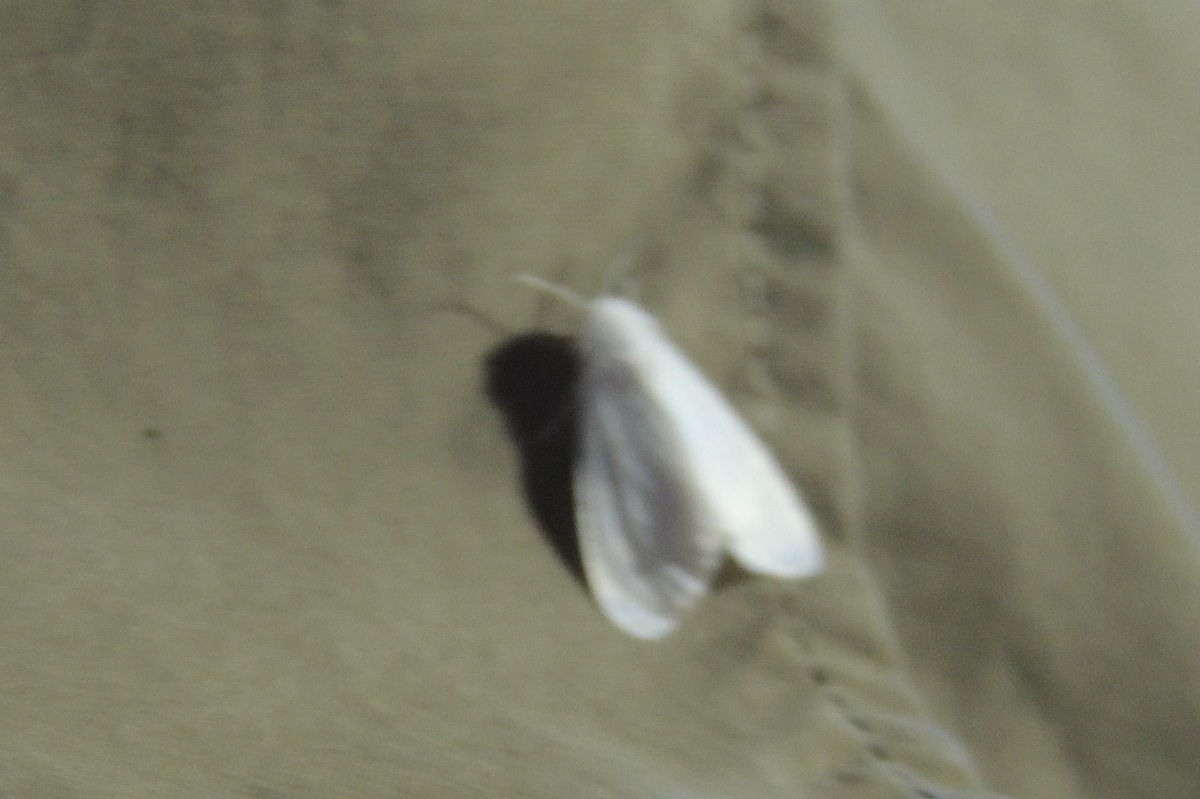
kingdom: Animalia
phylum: Arthropoda
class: Insecta
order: Lepidoptera
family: Erebidae
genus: Hyphantria
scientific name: Hyphantria cunea
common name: American white moth
